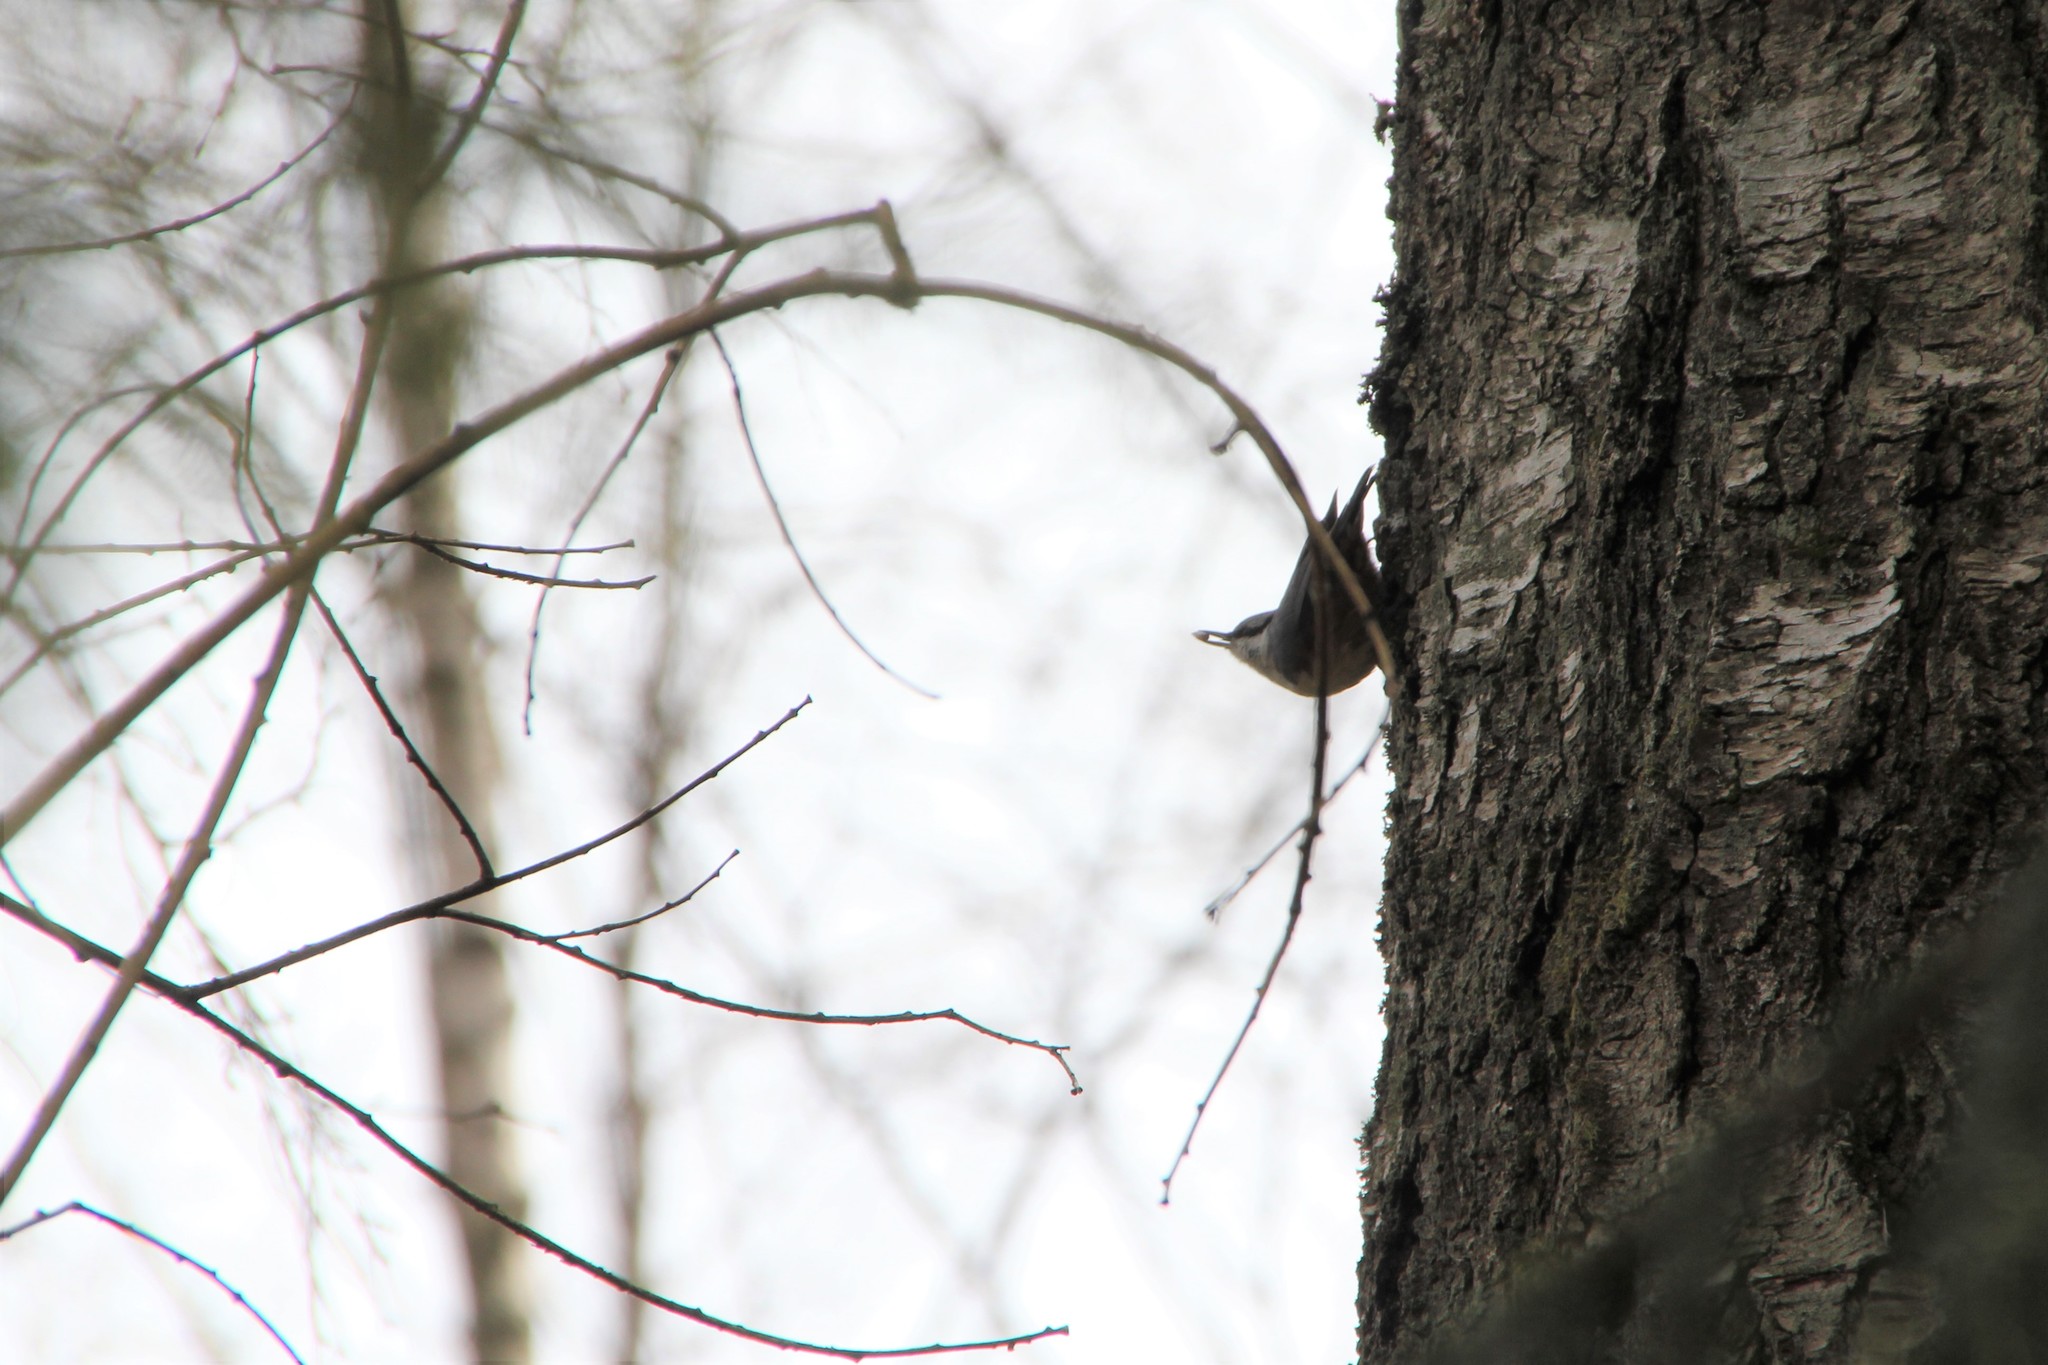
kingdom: Animalia
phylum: Chordata
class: Aves
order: Passeriformes
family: Sittidae
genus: Sitta
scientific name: Sitta europaea
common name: Eurasian nuthatch
